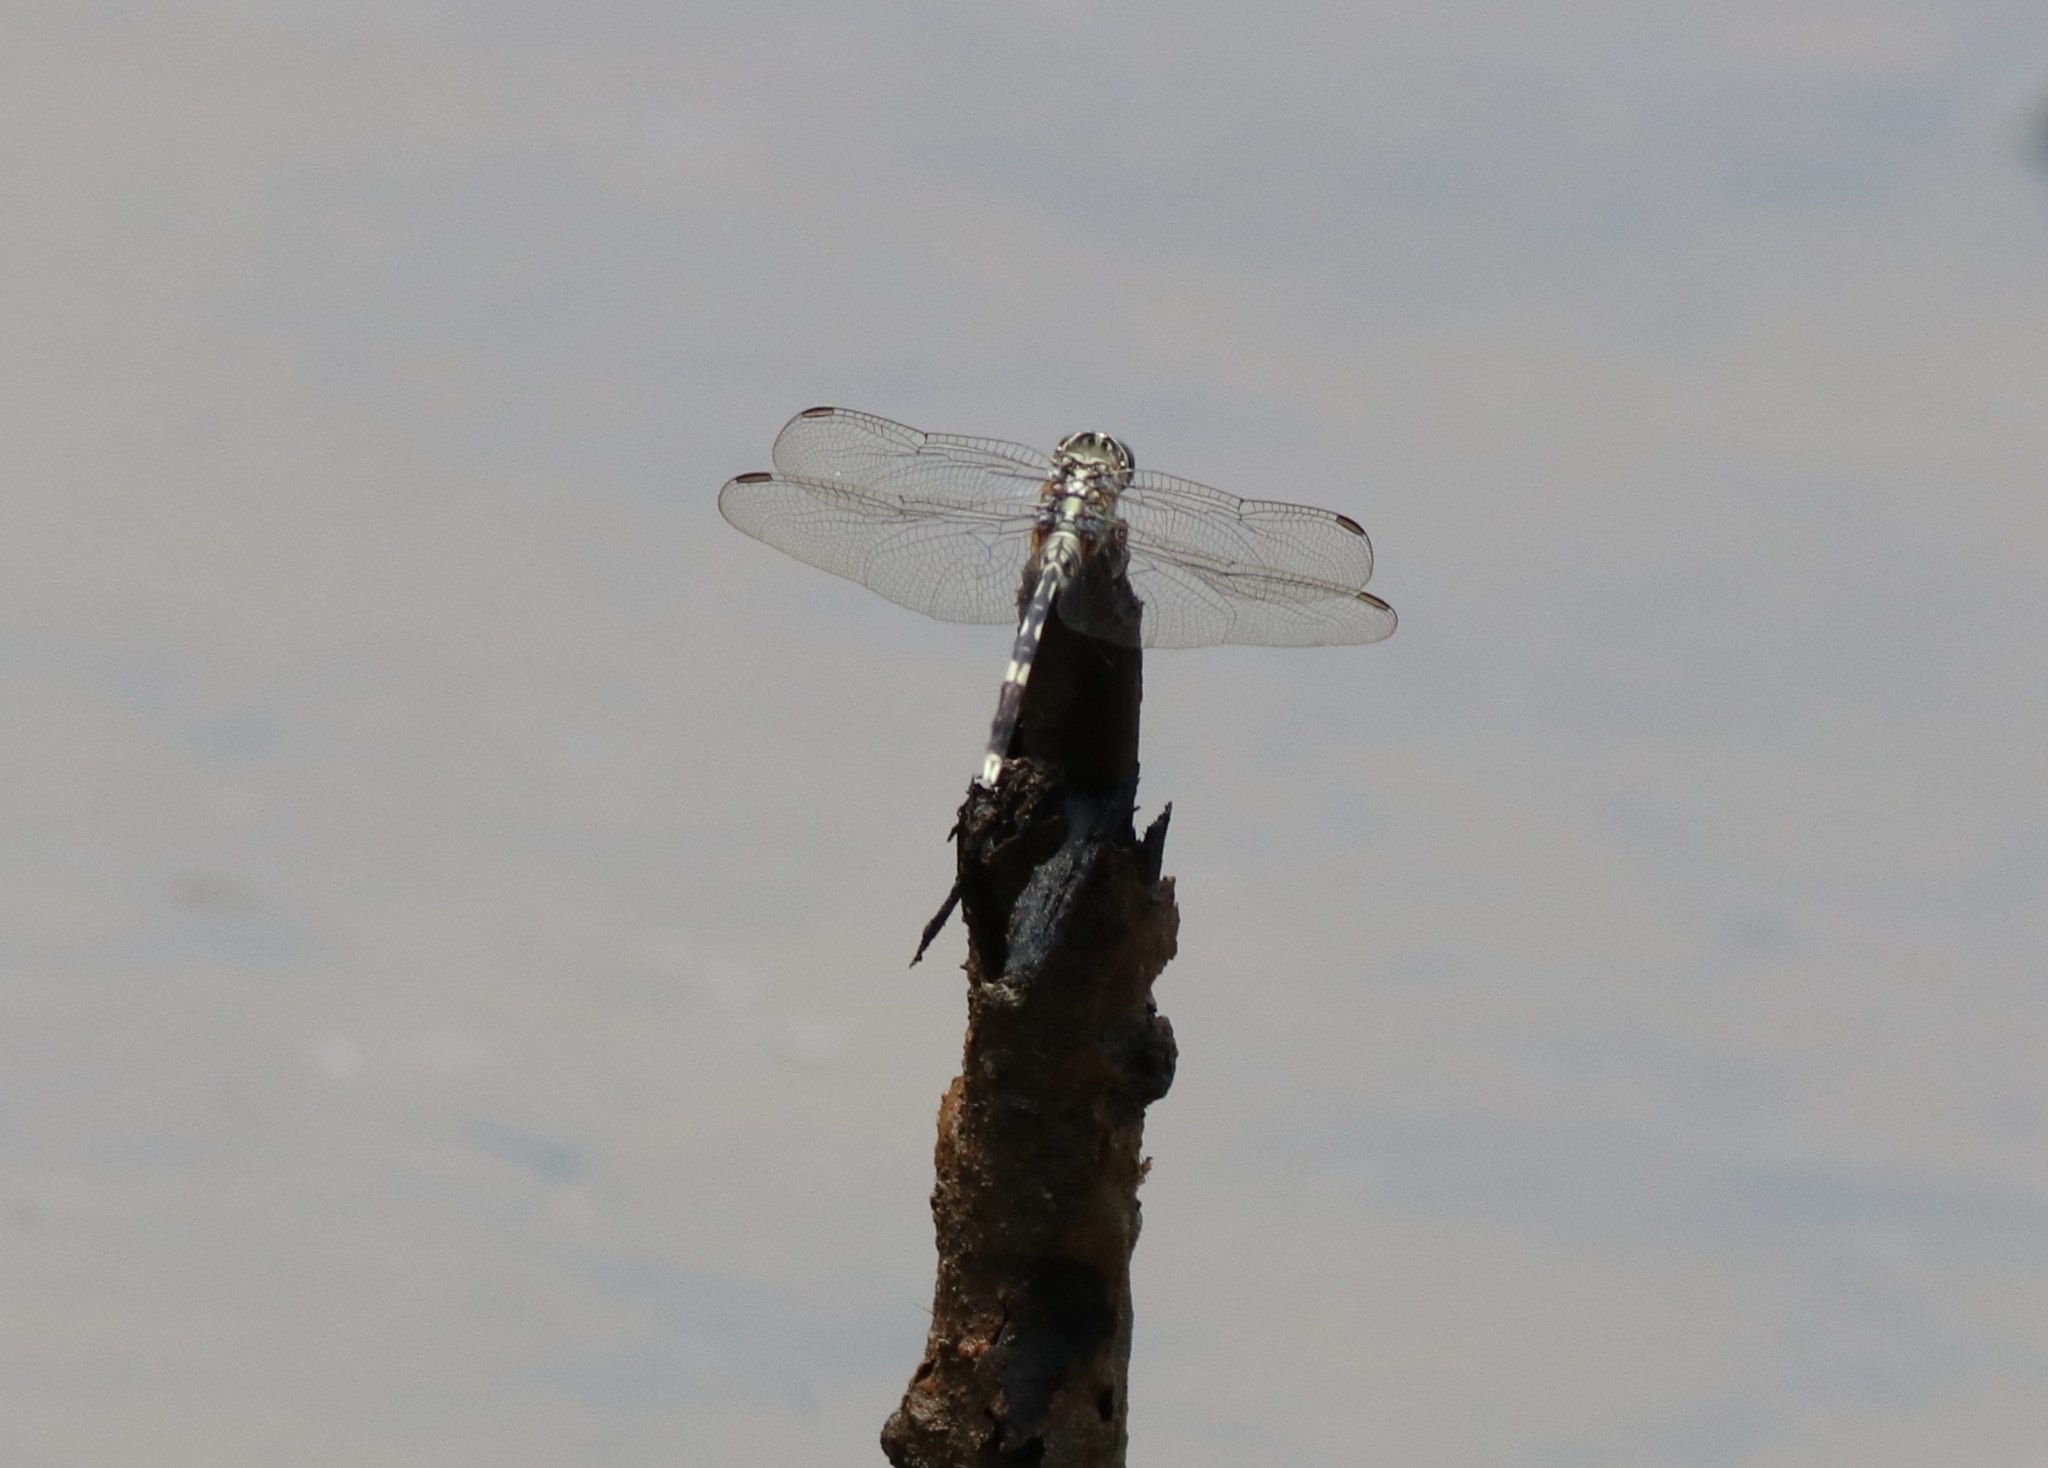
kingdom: Animalia
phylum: Arthropoda
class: Insecta
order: Odonata
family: Libellulidae
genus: Orthetrum
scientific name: Orthetrum sabina
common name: Slender skimmer
